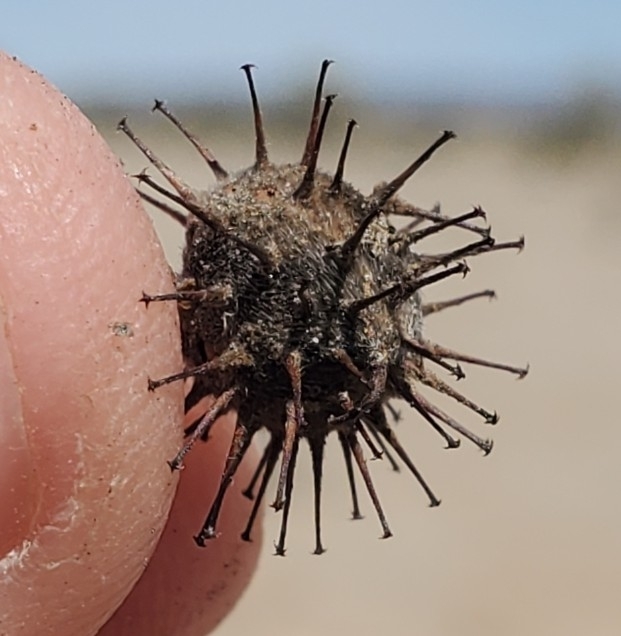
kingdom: Plantae
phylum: Tracheophyta
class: Magnoliopsida
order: Zygophyllales
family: Krameriaceae
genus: Krameria
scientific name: Krameria bicolor
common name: White ratany
